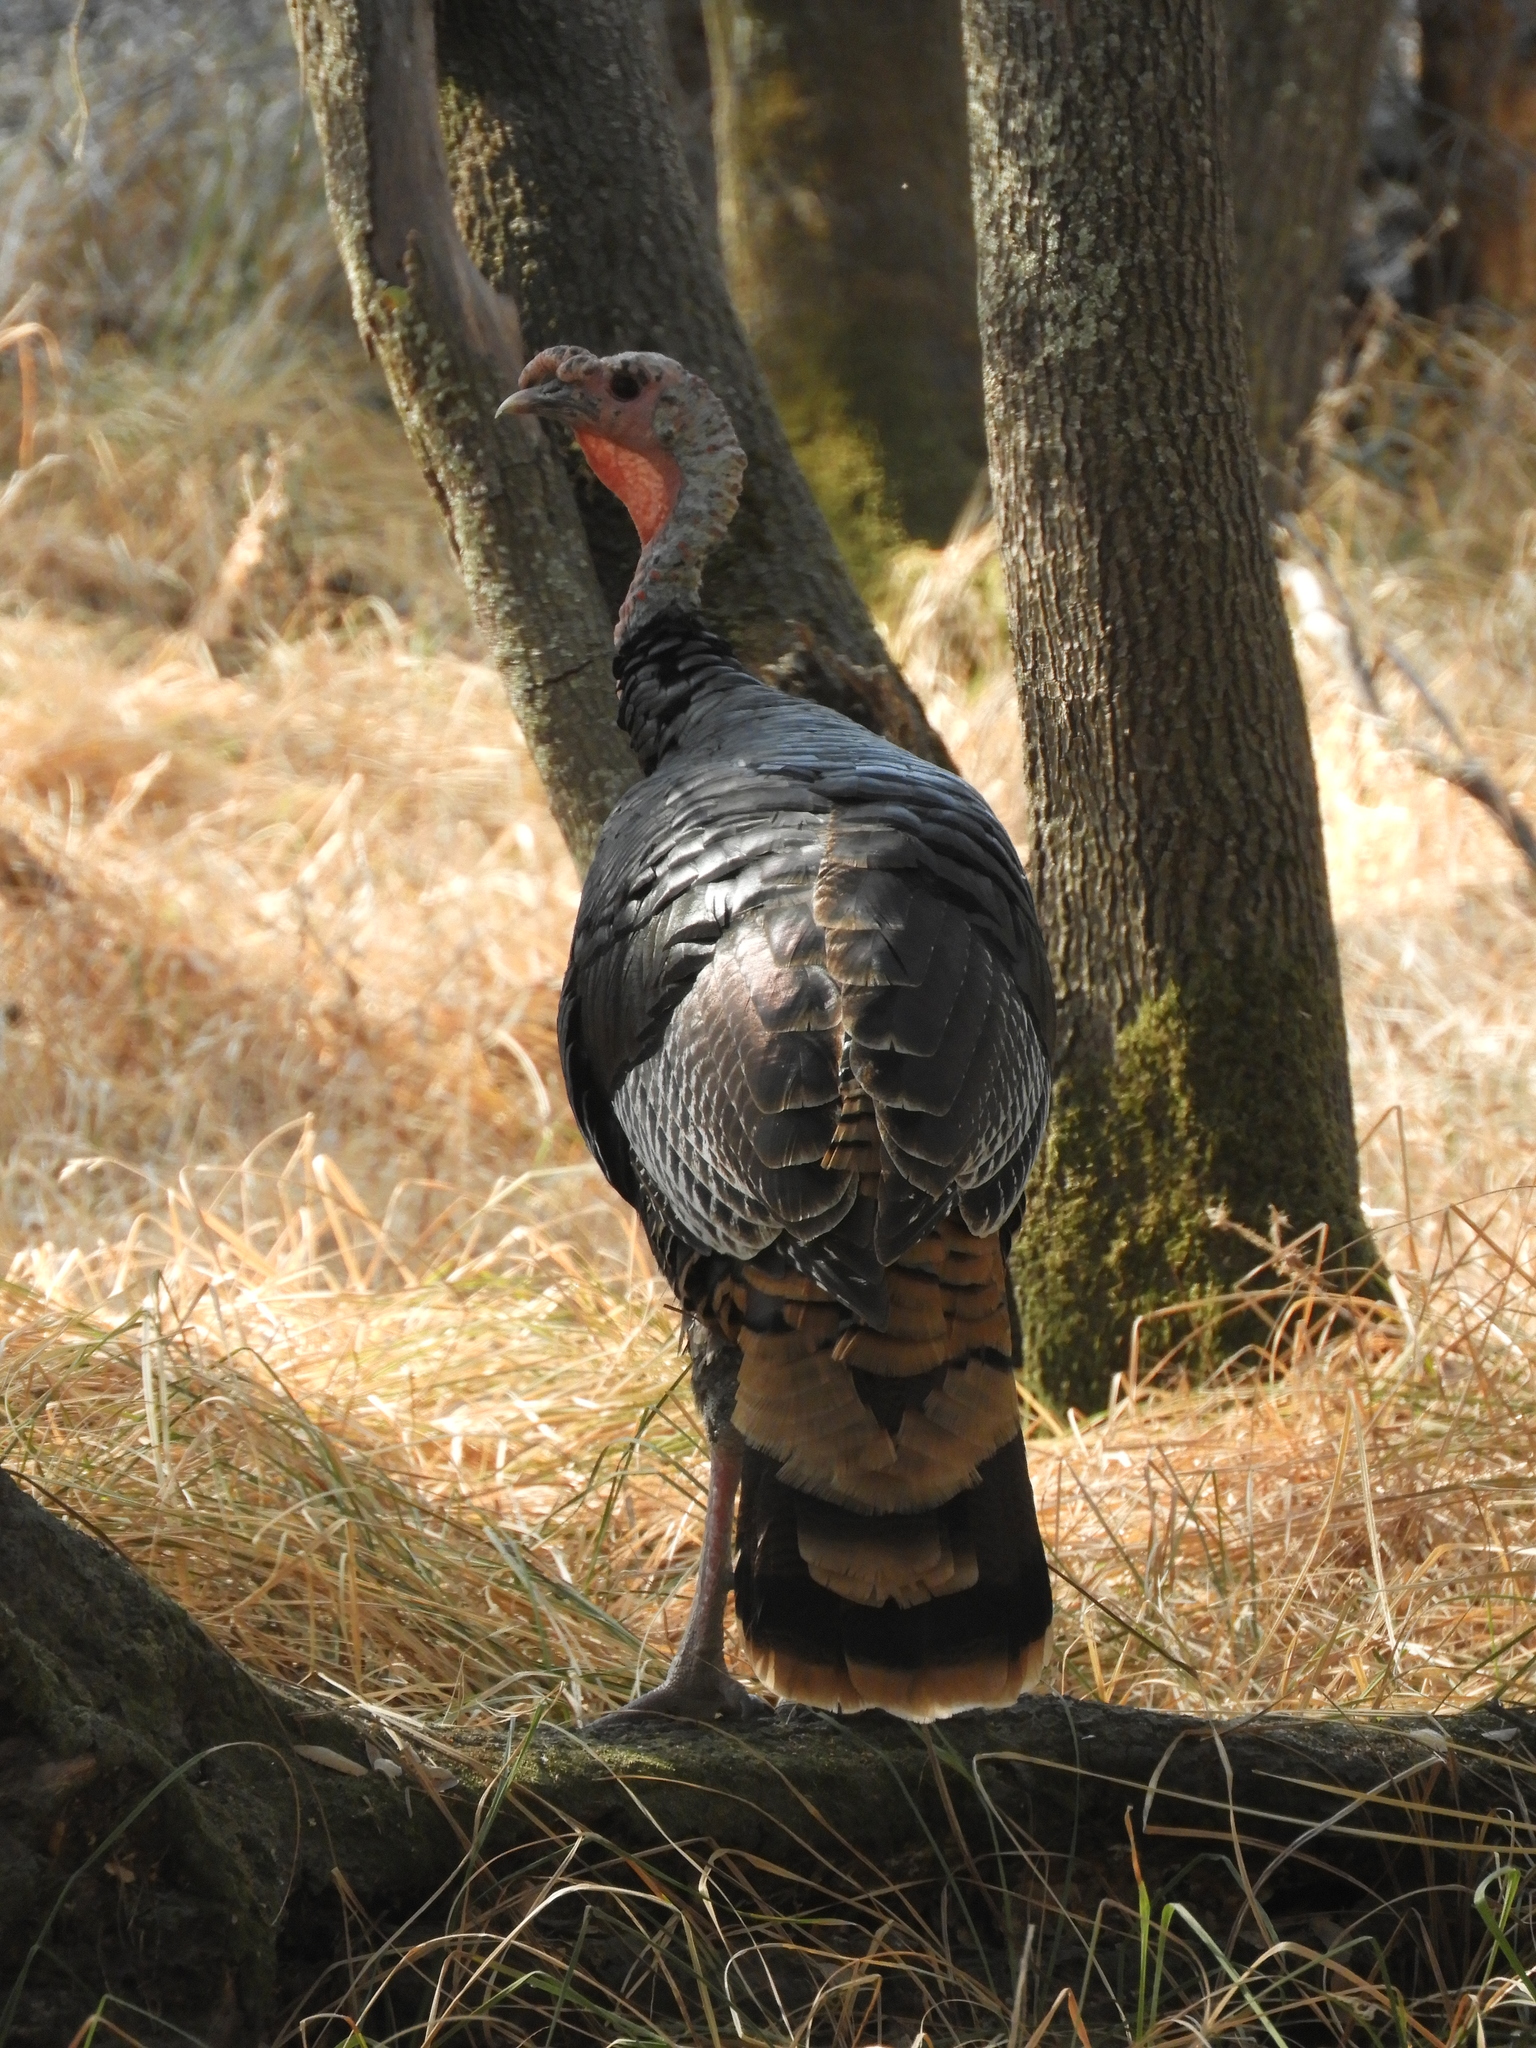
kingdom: Animalia
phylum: Chordata
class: Aves
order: Galliformes
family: Phasianidae
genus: Meleagris
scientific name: Meleagris gallopavo
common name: Wild turkey
